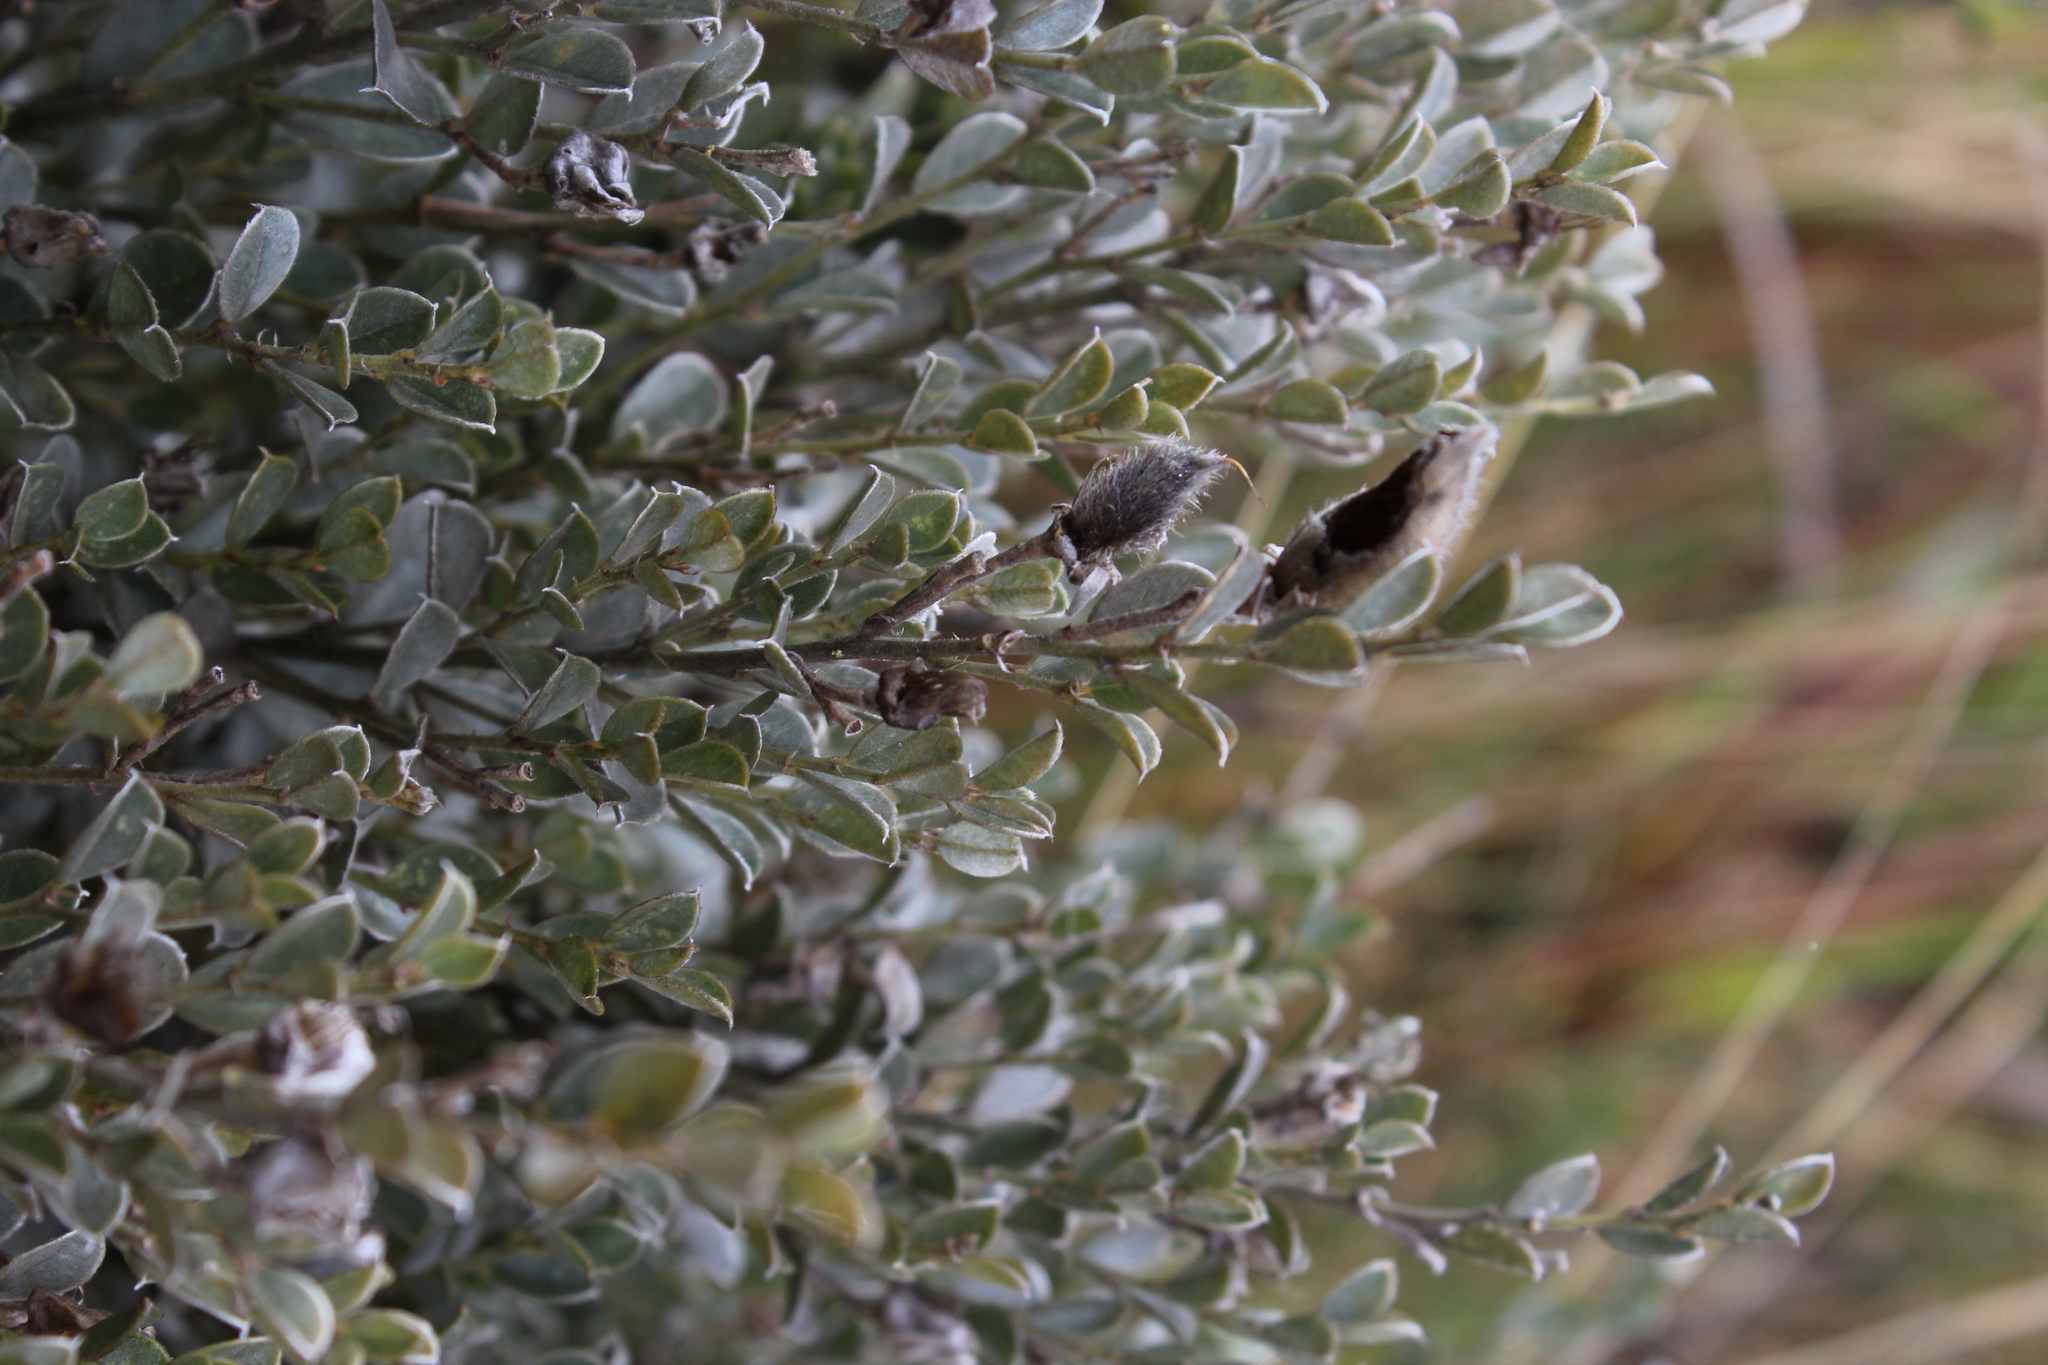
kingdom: Plantae
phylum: Tracheophyta
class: Magnoliopsida
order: Fabales
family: Fabaceae
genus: Podalyria
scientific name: Podalyria sericea
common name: Silver podalyria
